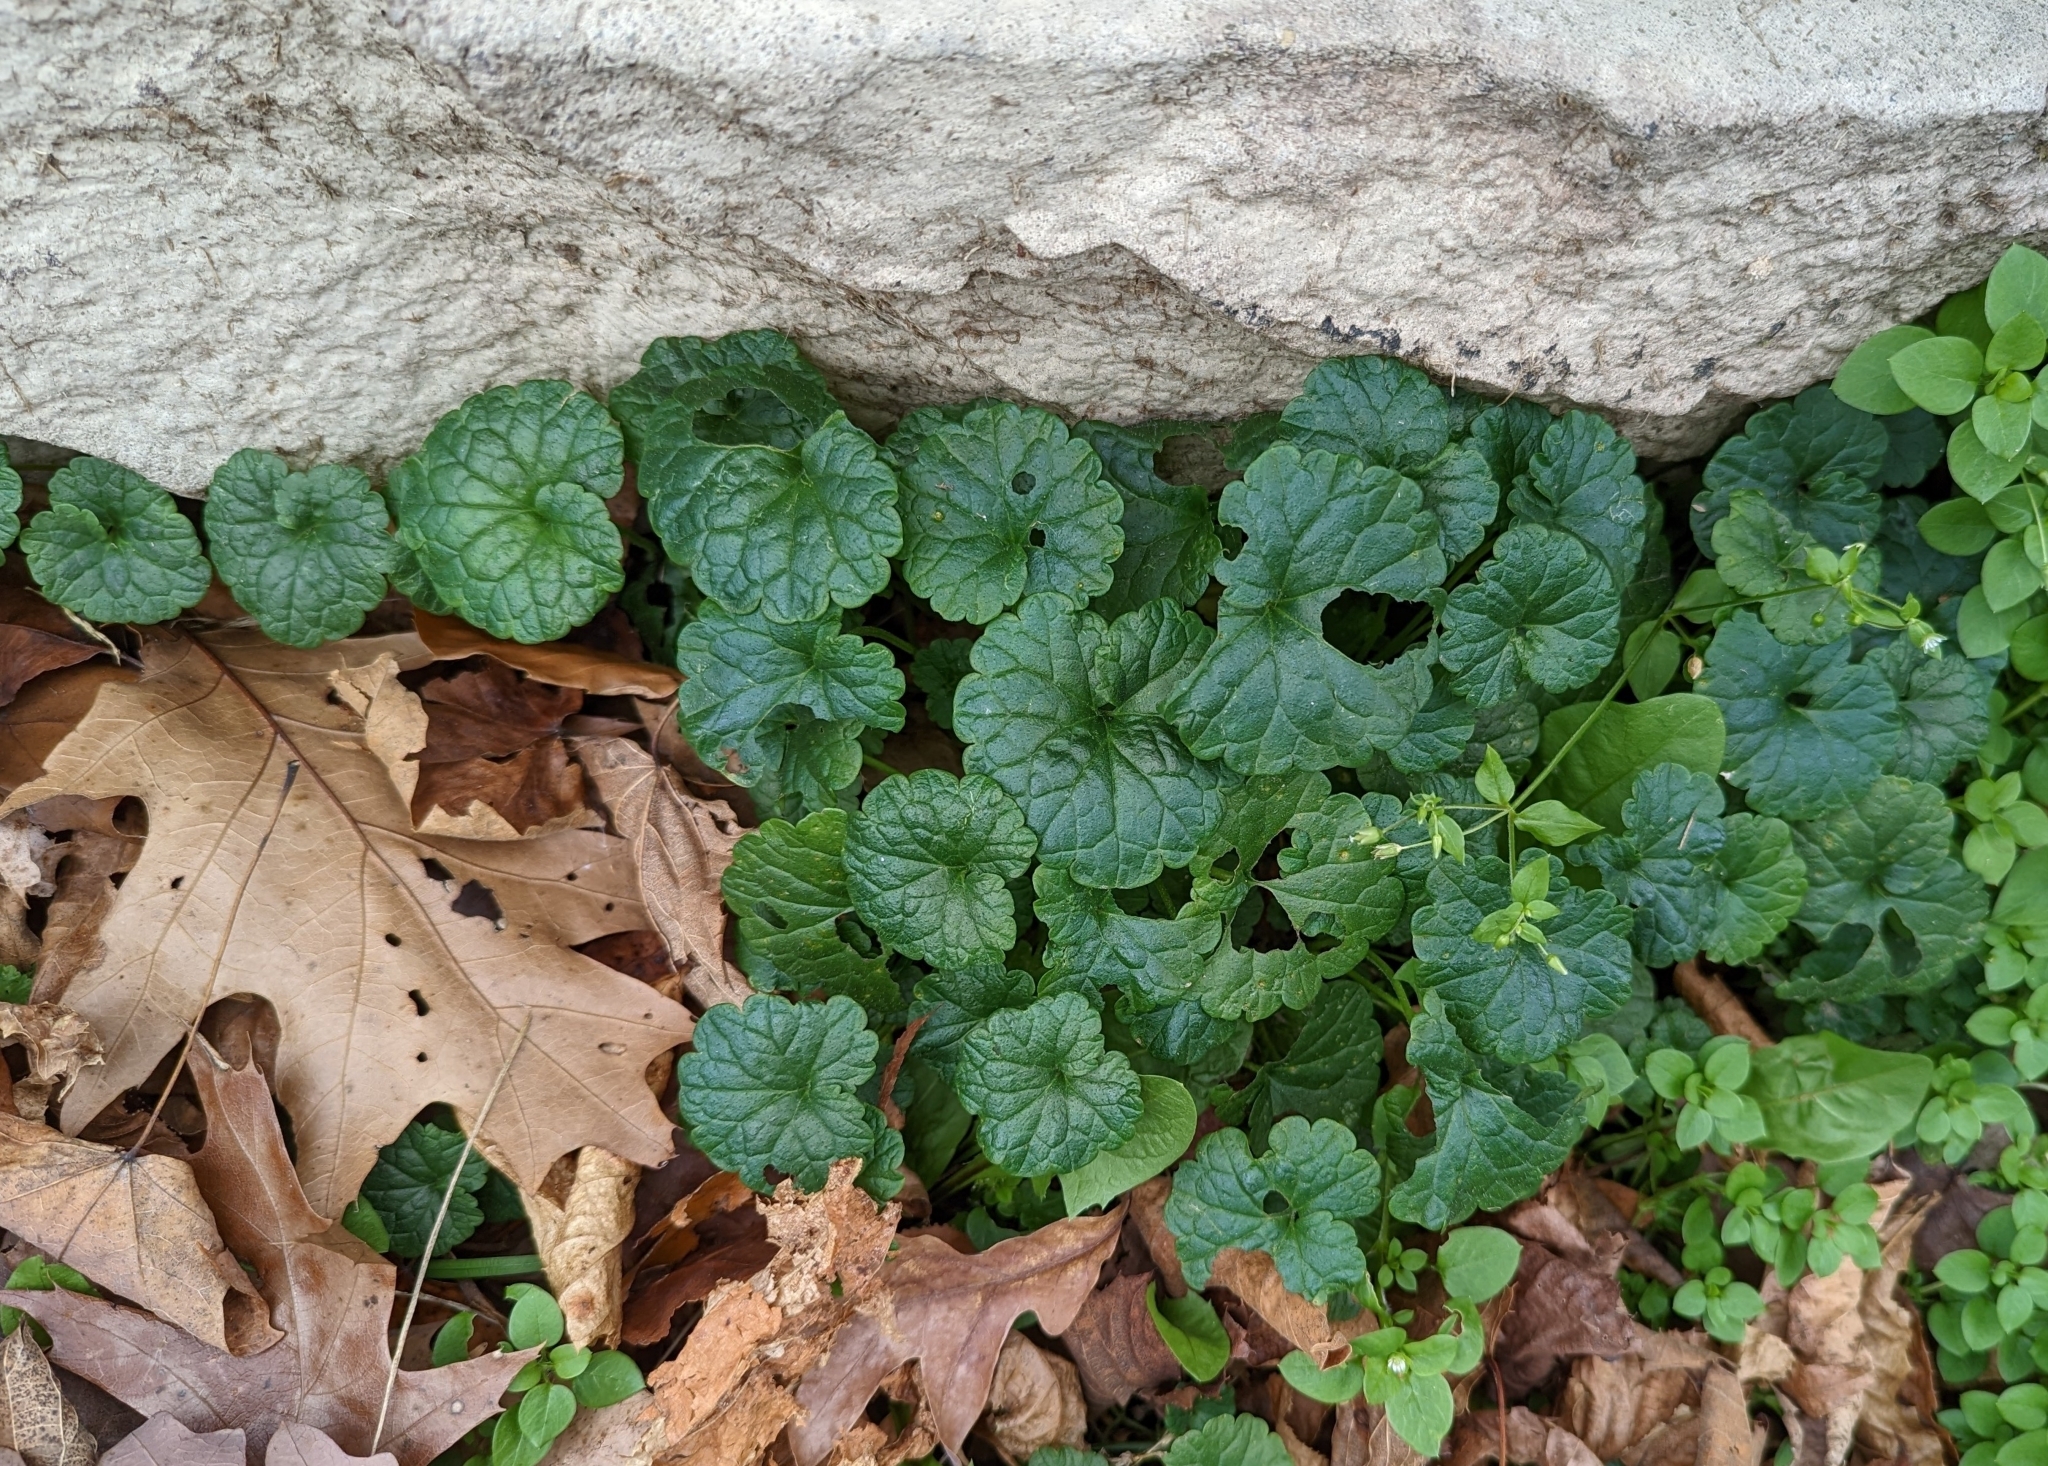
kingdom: Plantae
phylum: Tracheophyta
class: Magnoliopsida
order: Lamiales
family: Lamiaceae
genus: Glechoma
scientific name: Glechoma hederacea
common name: Ground ivy
